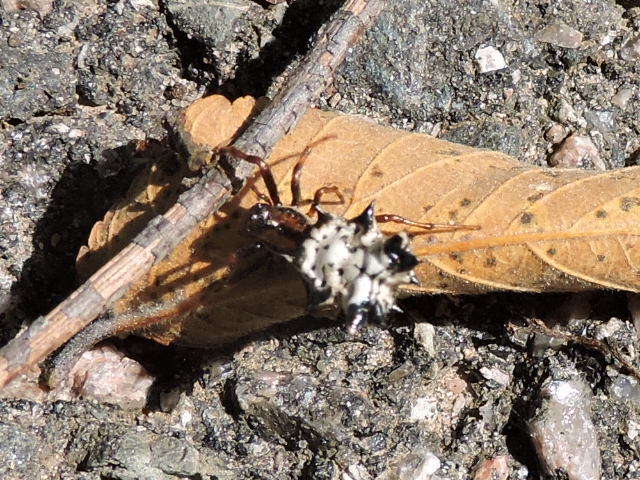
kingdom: Animalia
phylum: Arthropoda
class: Arachnida
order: Araneae
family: Araneidae
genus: Micrathena
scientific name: Micrathena gracilis
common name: Orb weavers
